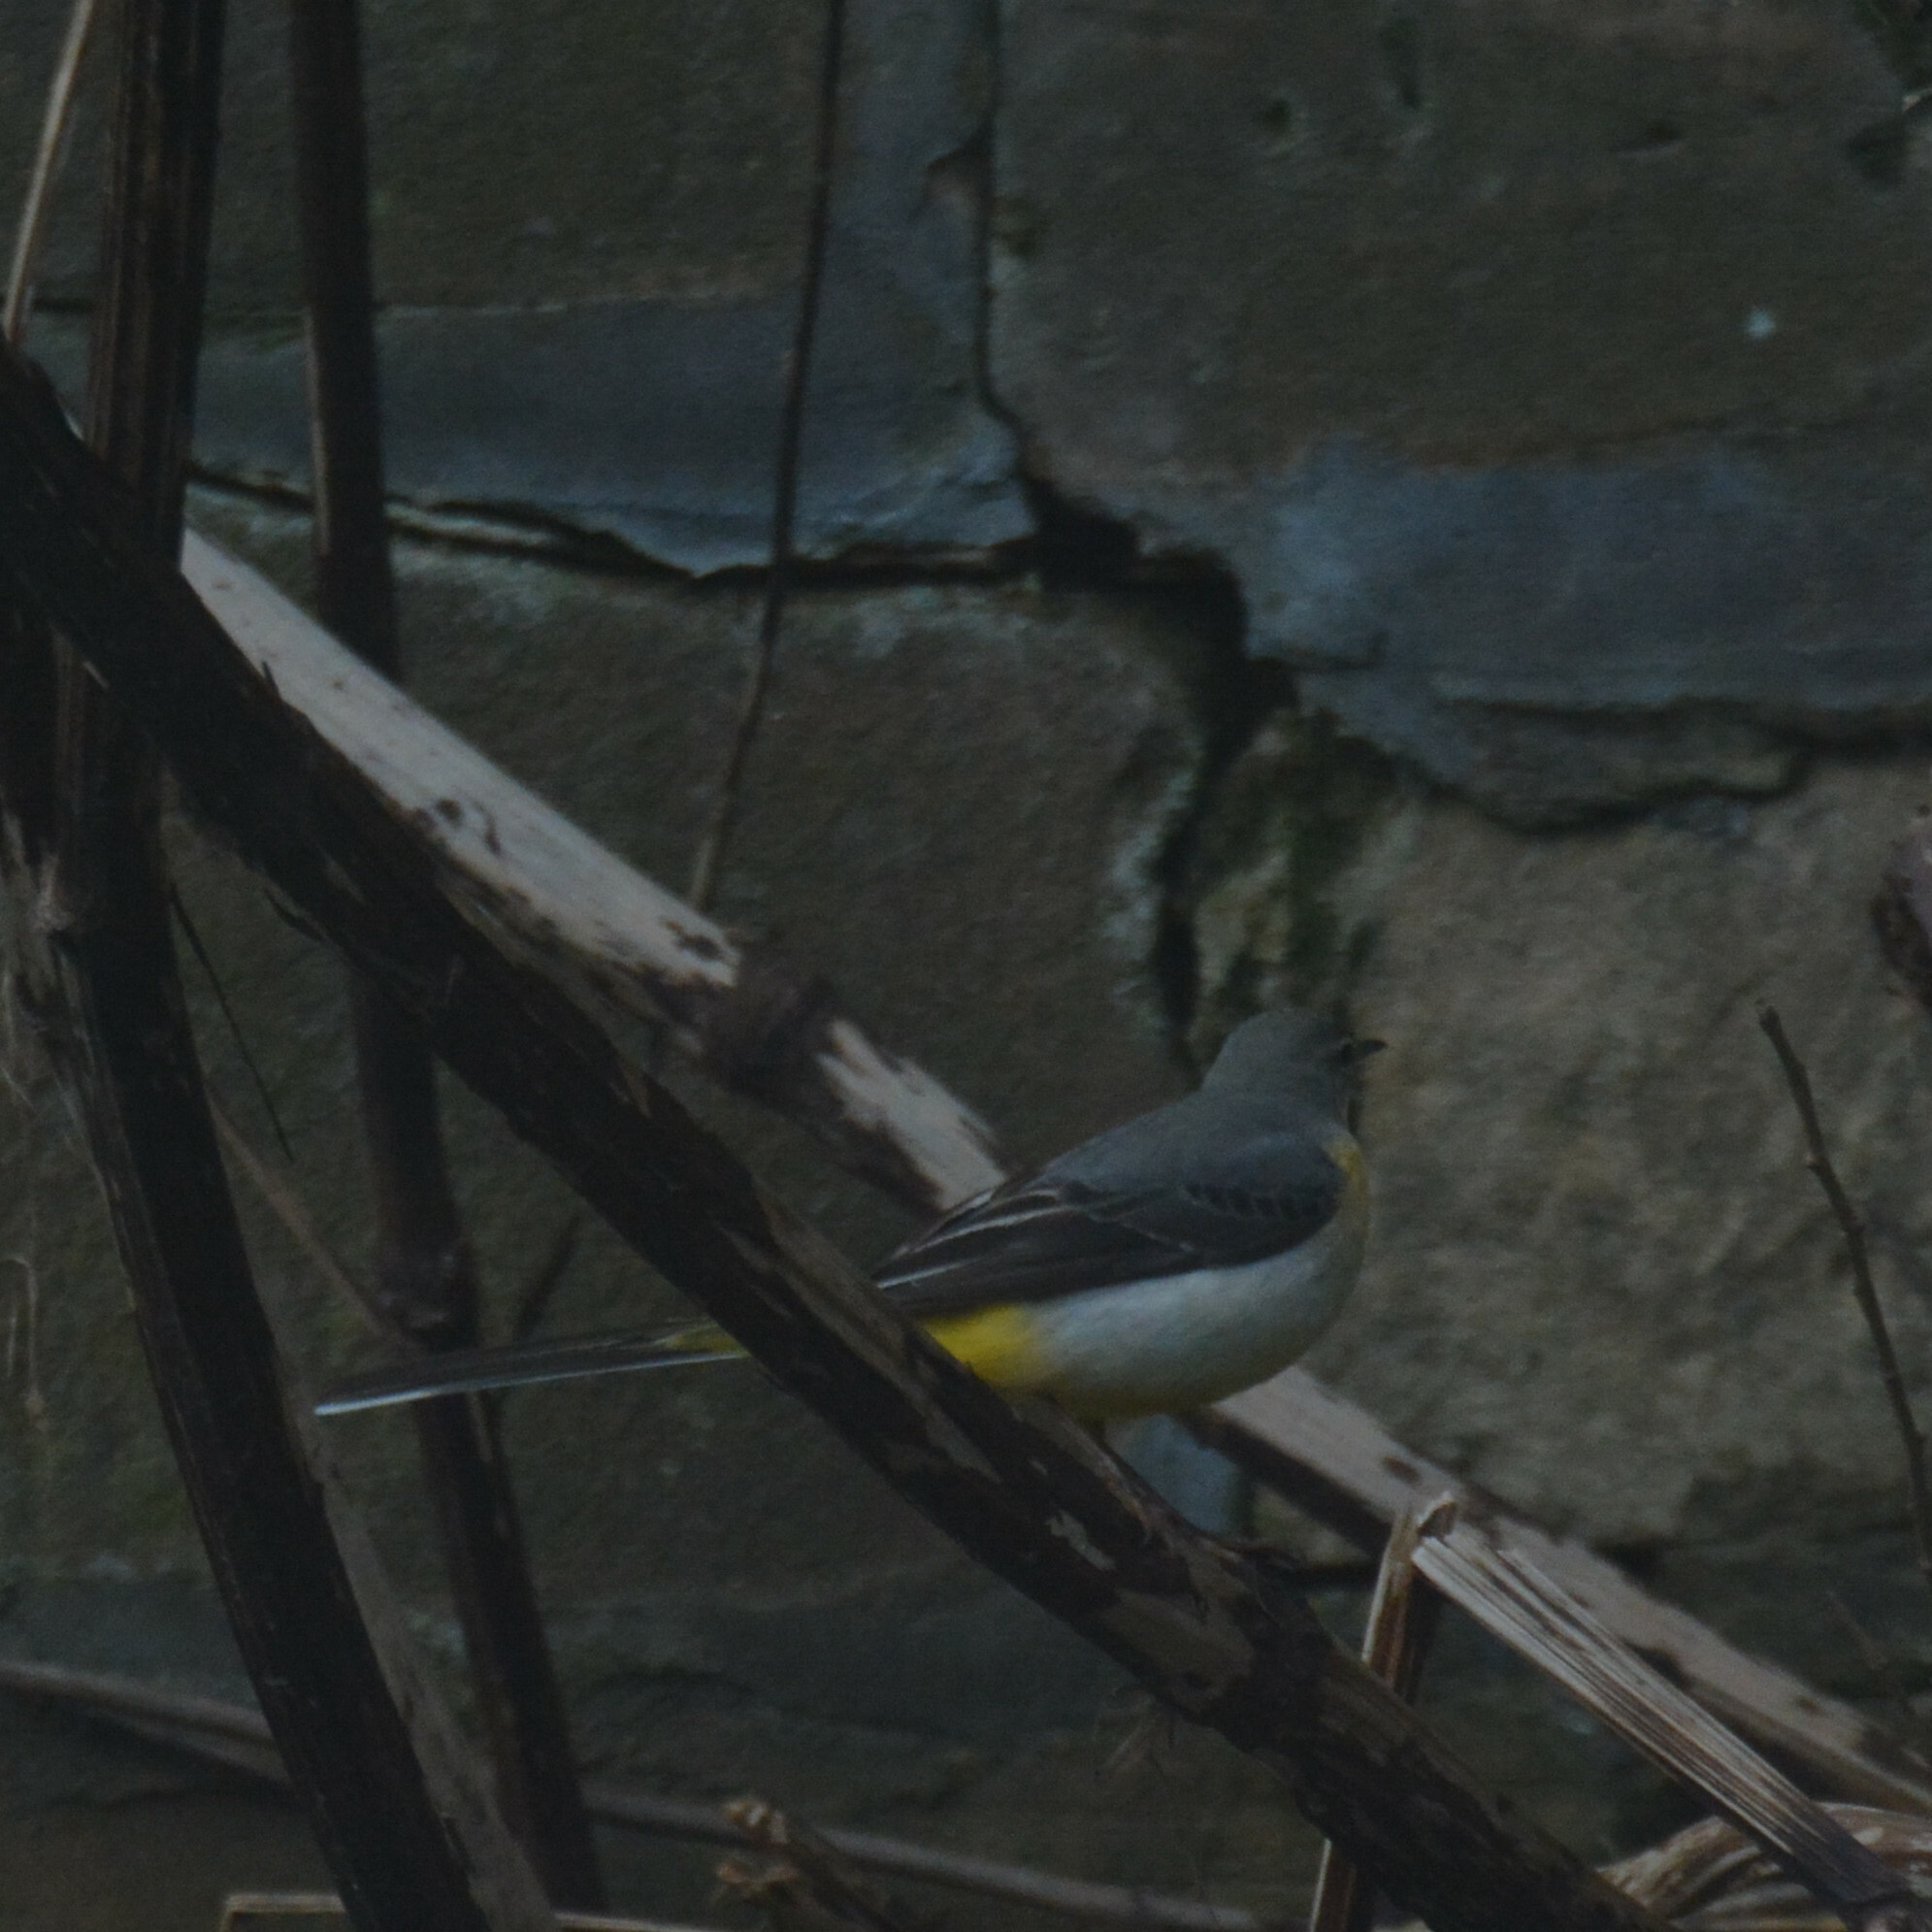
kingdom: Animalia
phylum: Chordata
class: Aves
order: Passeriformes
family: Motacillidae
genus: Motacilla
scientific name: Motacilla cinerea
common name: Grey wagtail
